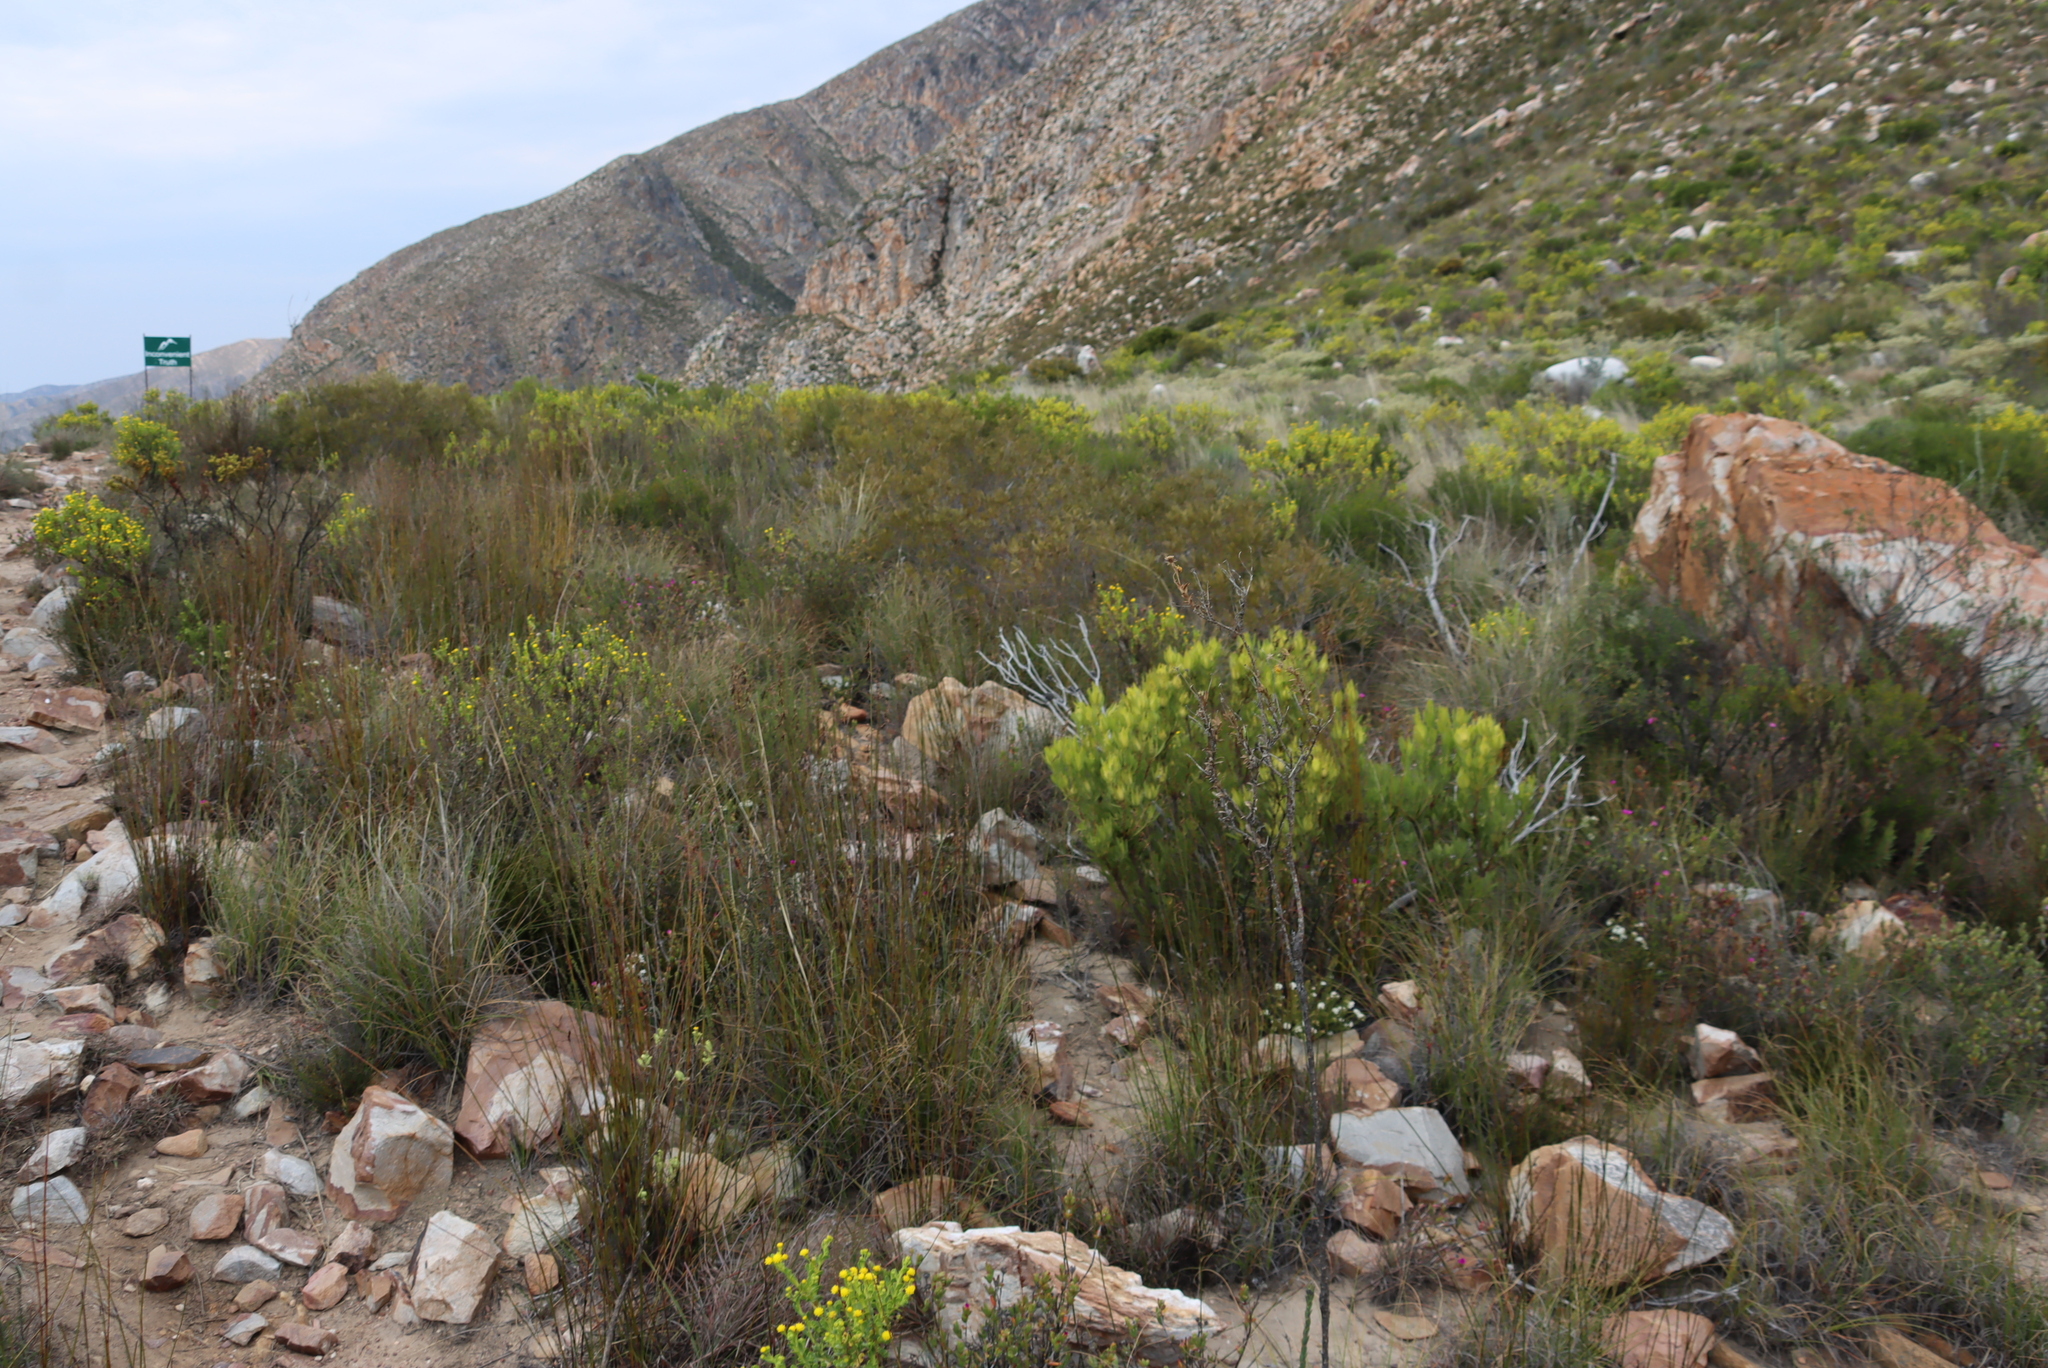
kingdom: Plantae
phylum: Tracheophyta
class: Magnoliopsida
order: Proteales
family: Proteaceae
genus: Leucadendron
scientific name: Leucadendron salignum
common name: Common sunshine conebush
